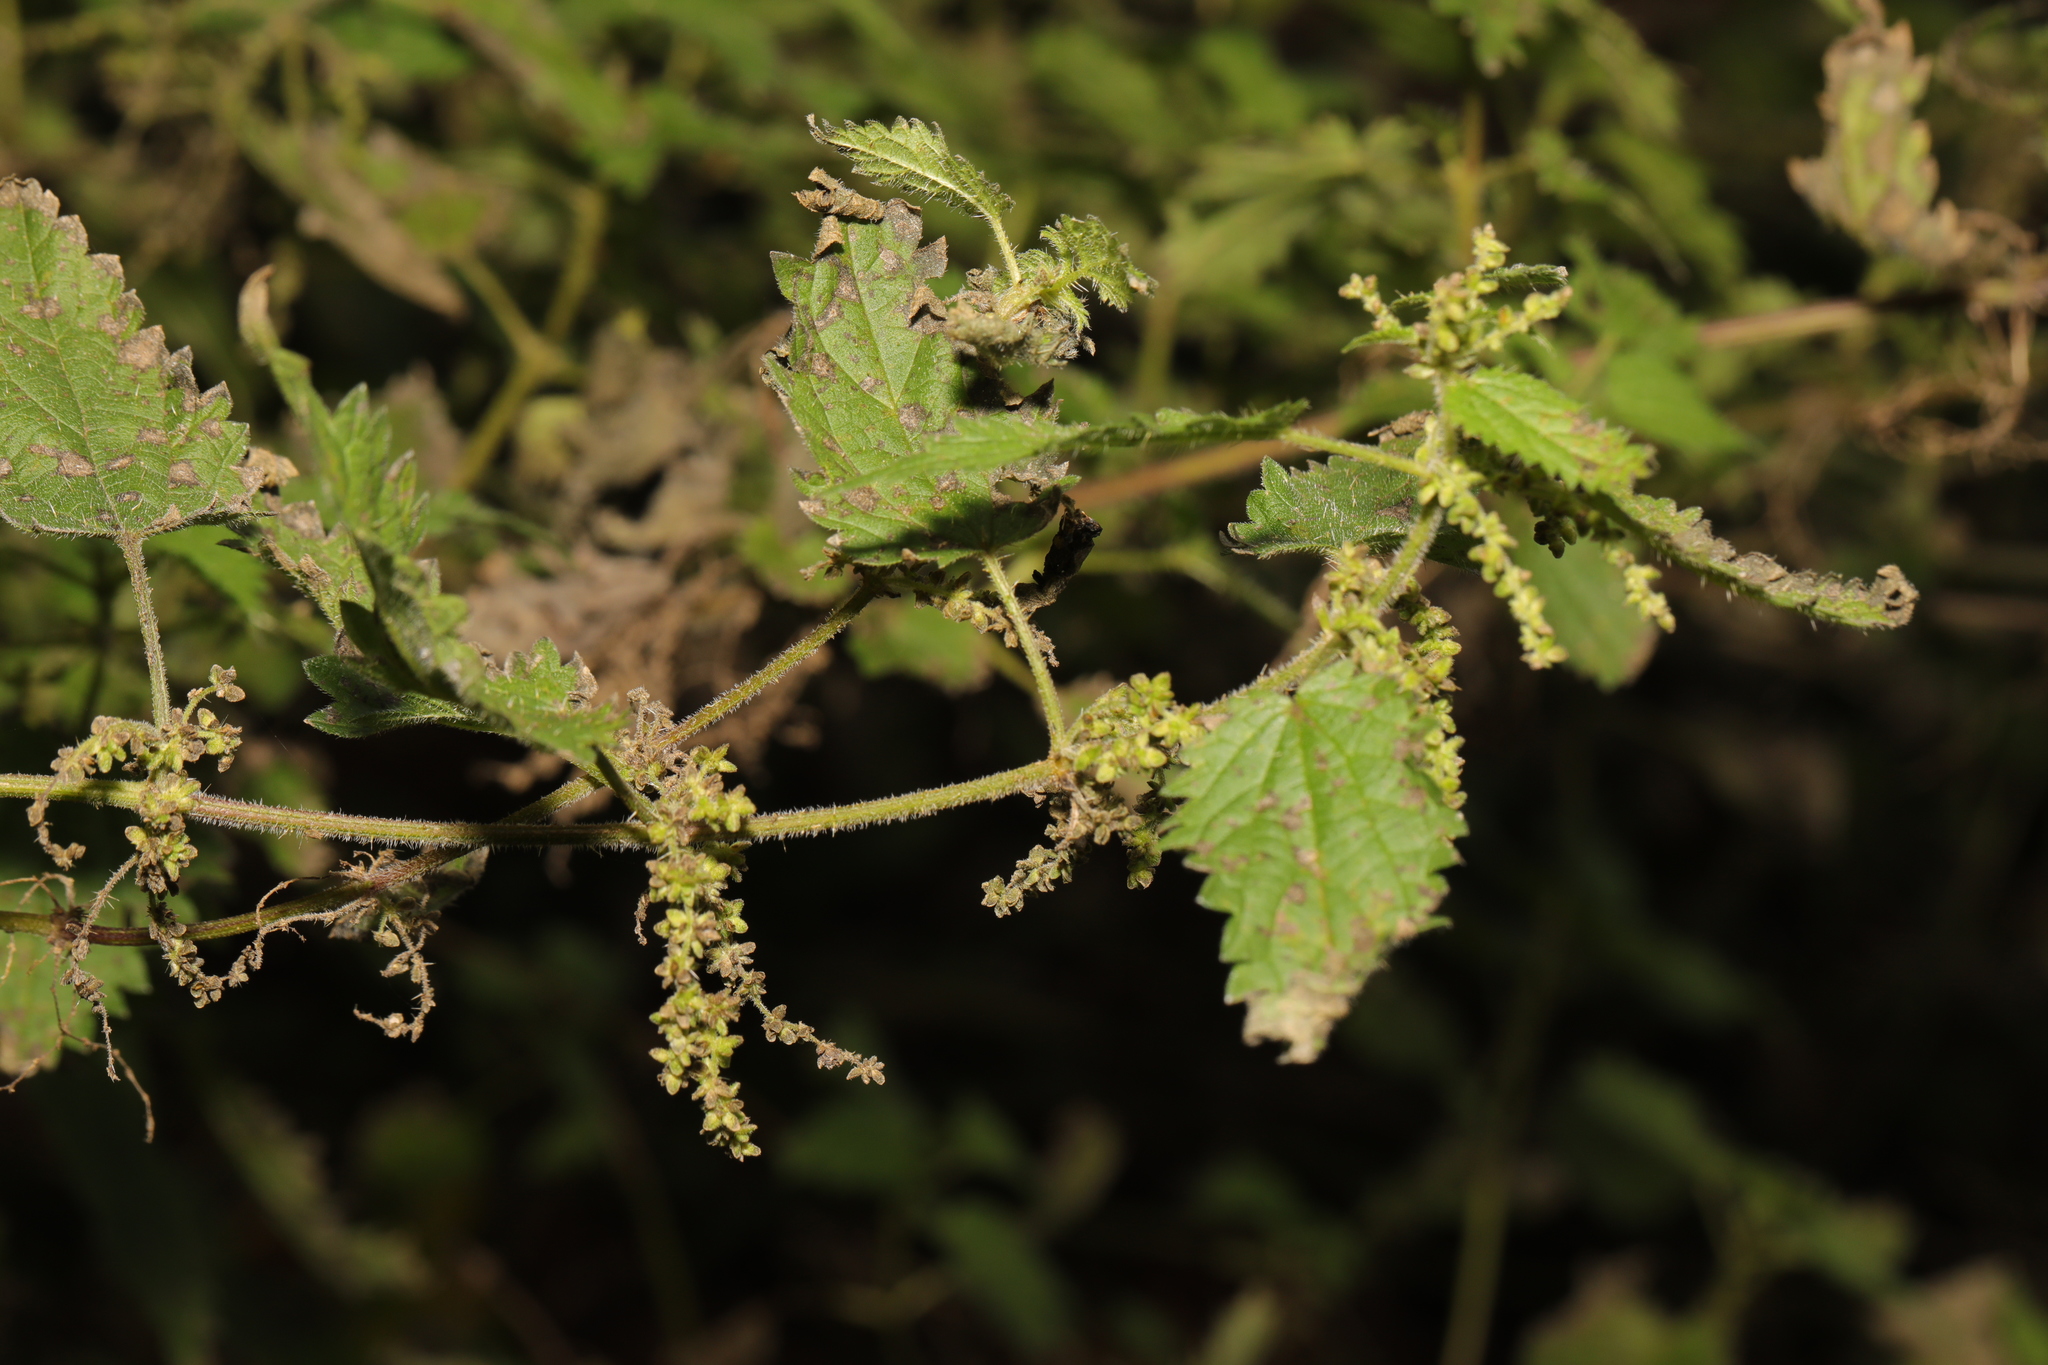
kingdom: Plantae
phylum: Tracheophyta
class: Magnoliopsida
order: Rosales
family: Urticaceae
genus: Urtica
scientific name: Urtica dioica
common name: Common nettle
